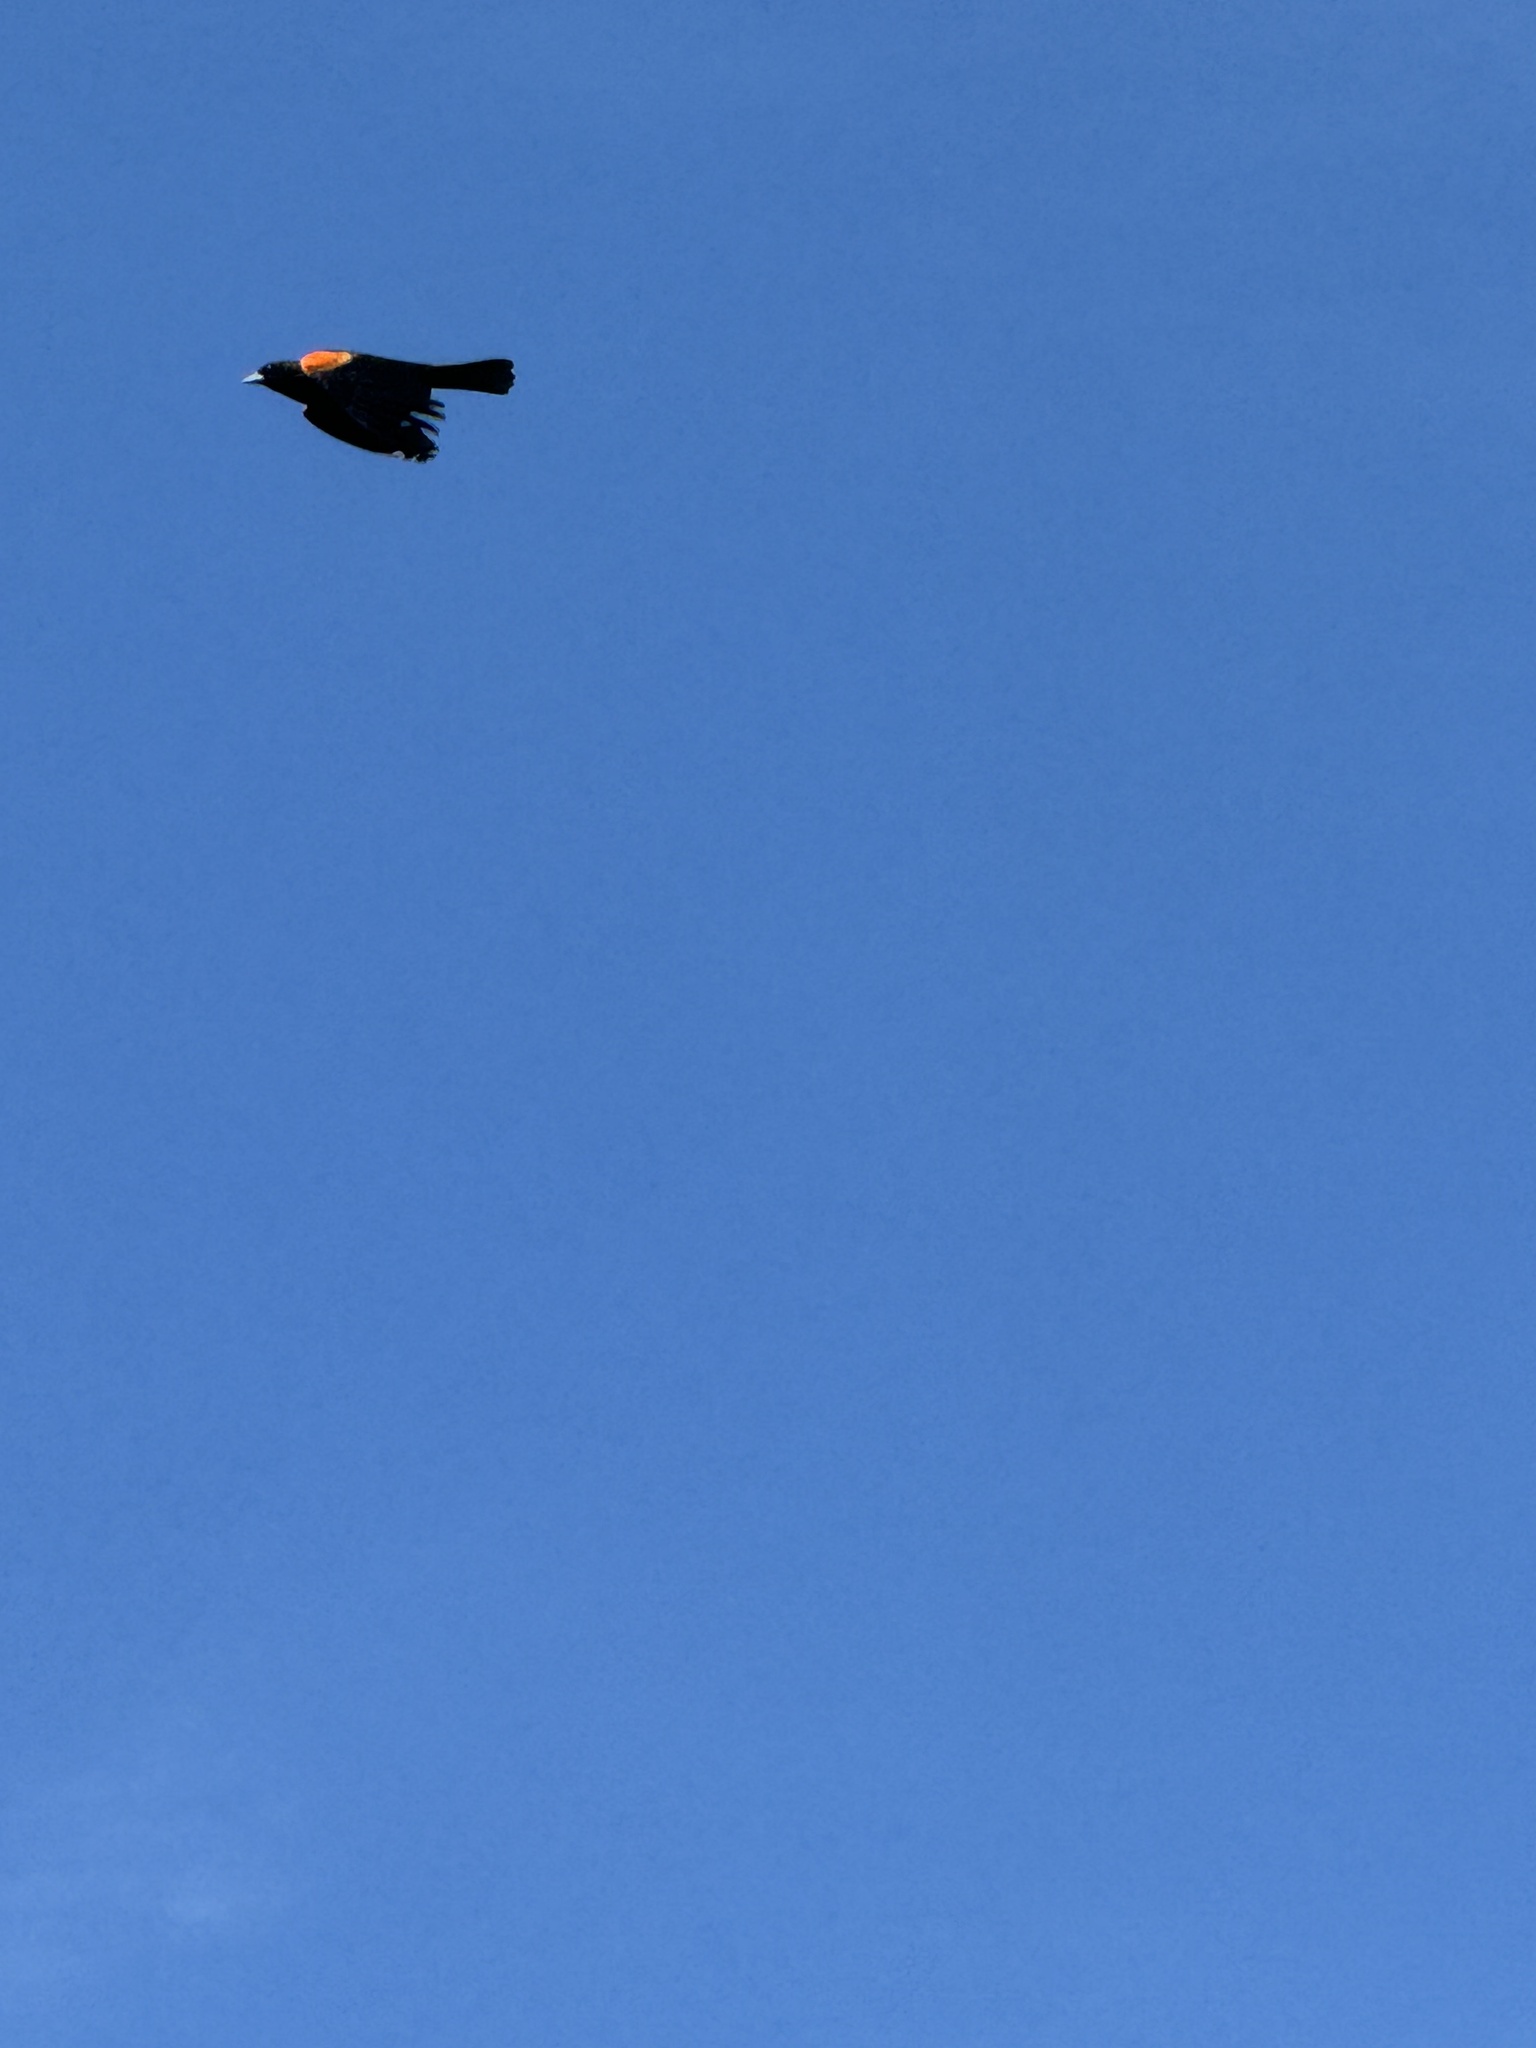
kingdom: Animalia
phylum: Chordata
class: Aves
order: Passeriformes
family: Icteridae
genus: Agelaius
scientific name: Agelaius phoeniceus
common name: Red-winged blackbird
